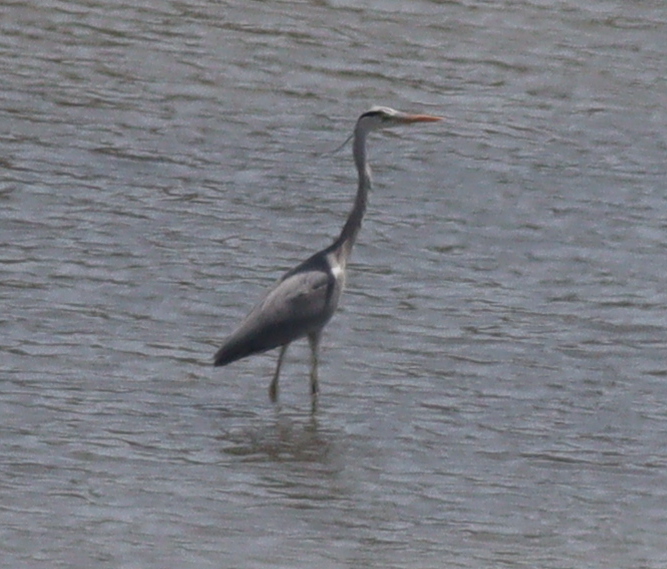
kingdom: Animalia
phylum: Chordata
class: Aves
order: Pelecaniformes
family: Ardeidae
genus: Ardea
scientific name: Ardea cinerea
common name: Grey heron
